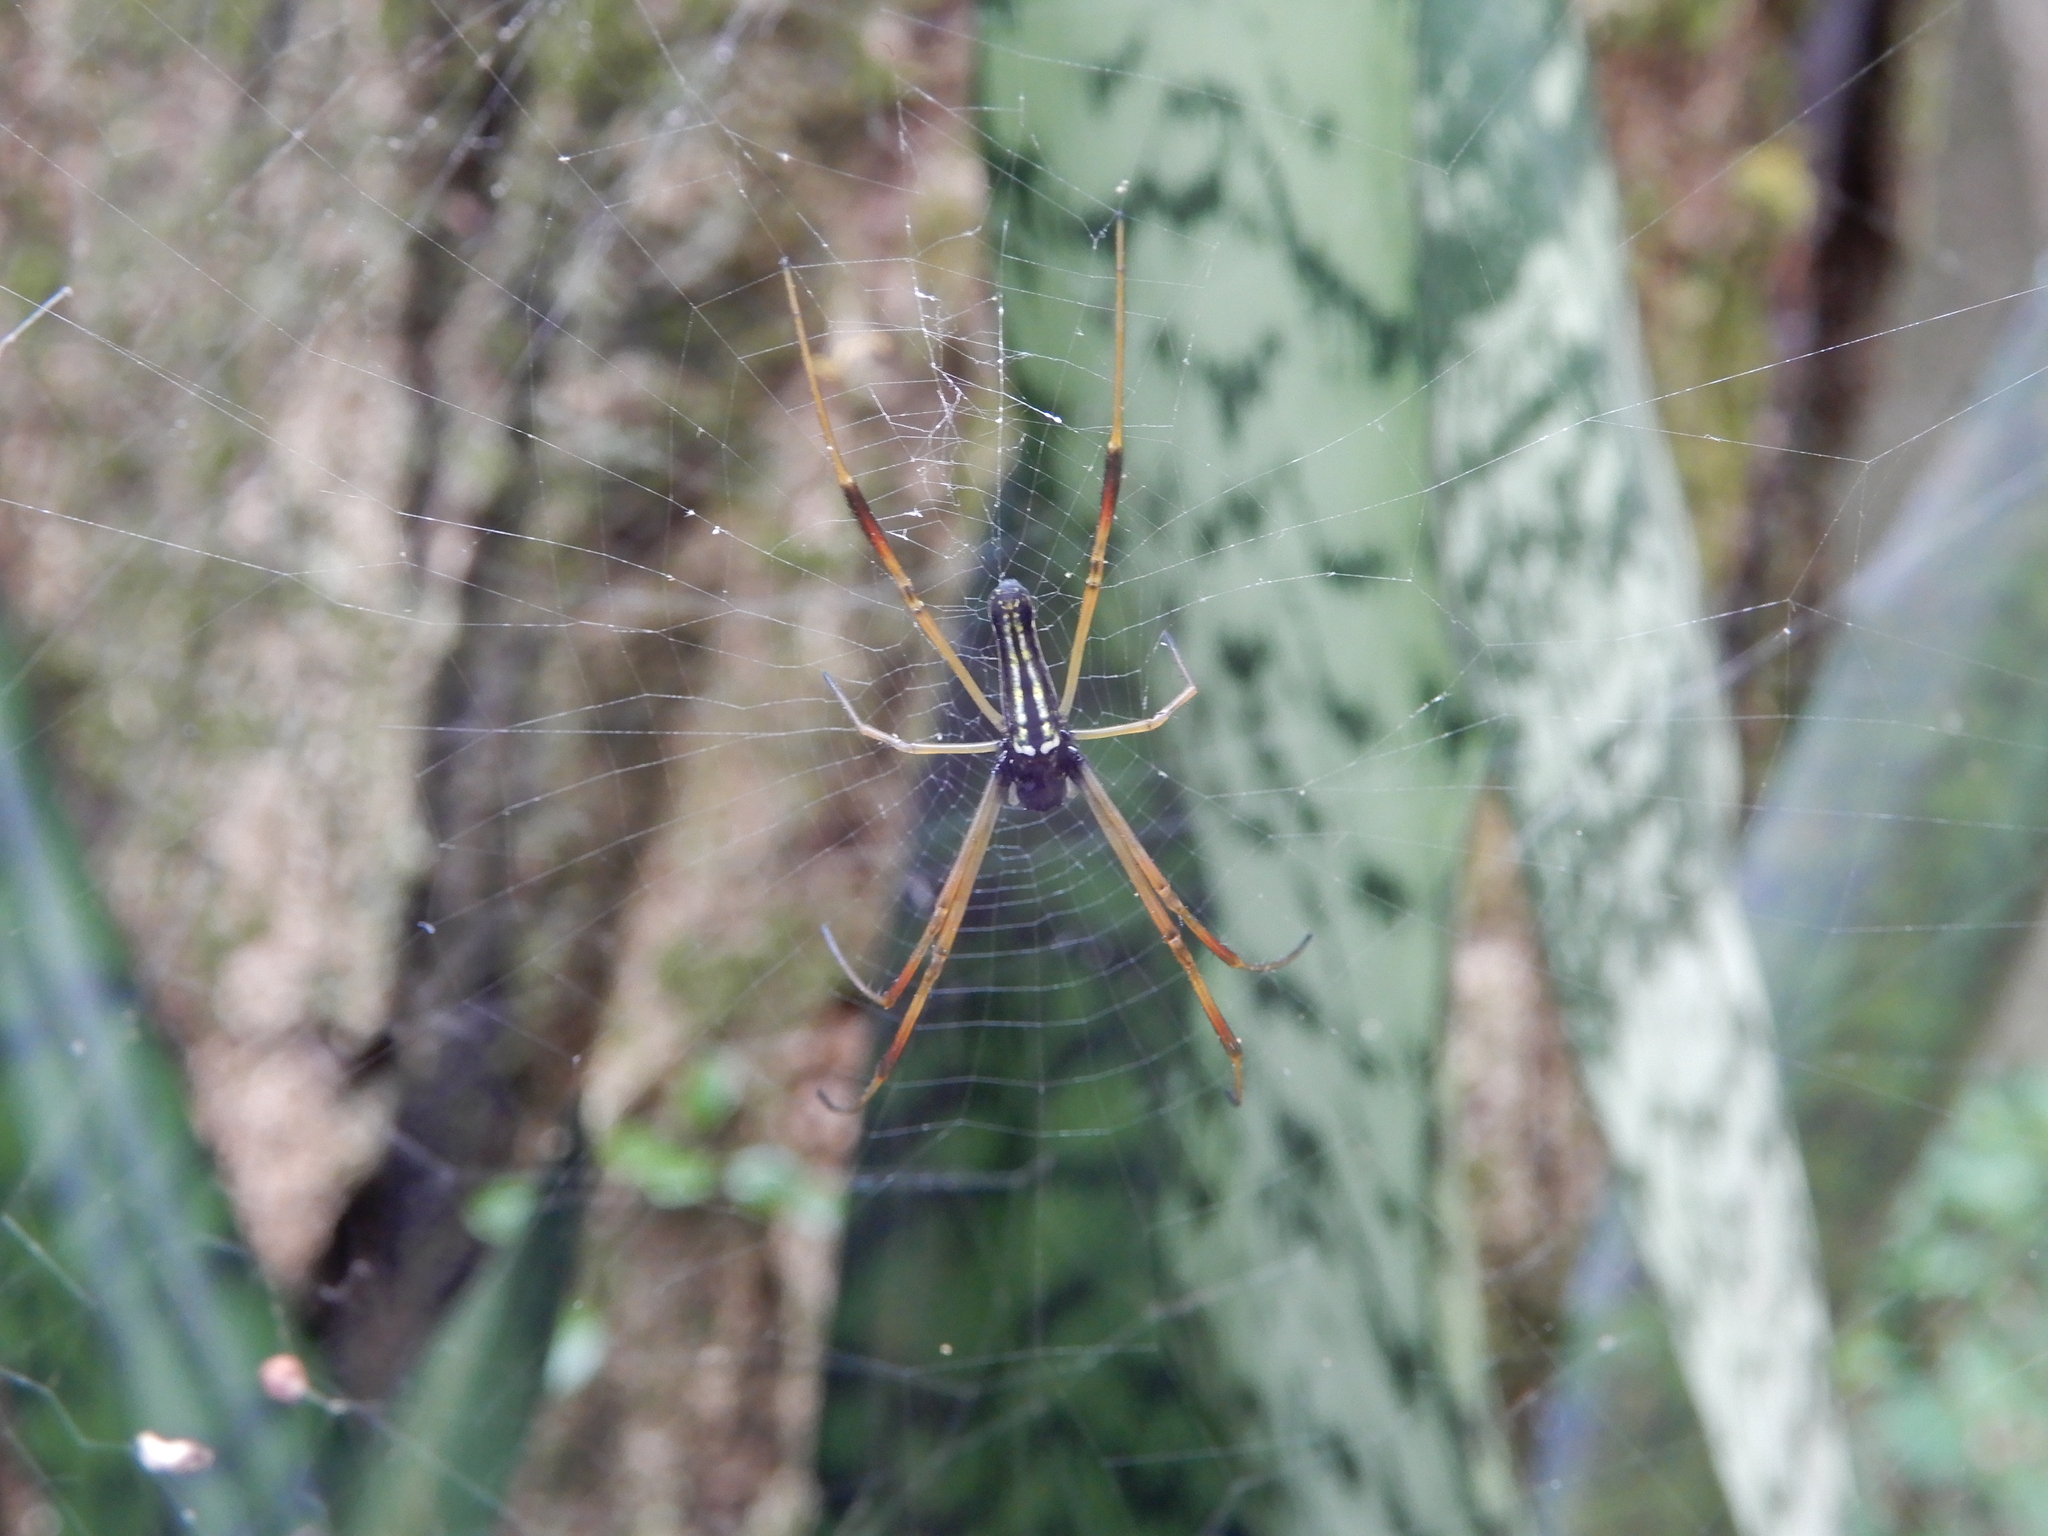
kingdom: Animalia
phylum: Arthropoda
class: Arachnida
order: Araneae
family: Araneidae
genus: Nephila
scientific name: Nephila pilipes
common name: Giant golden orb weaver
